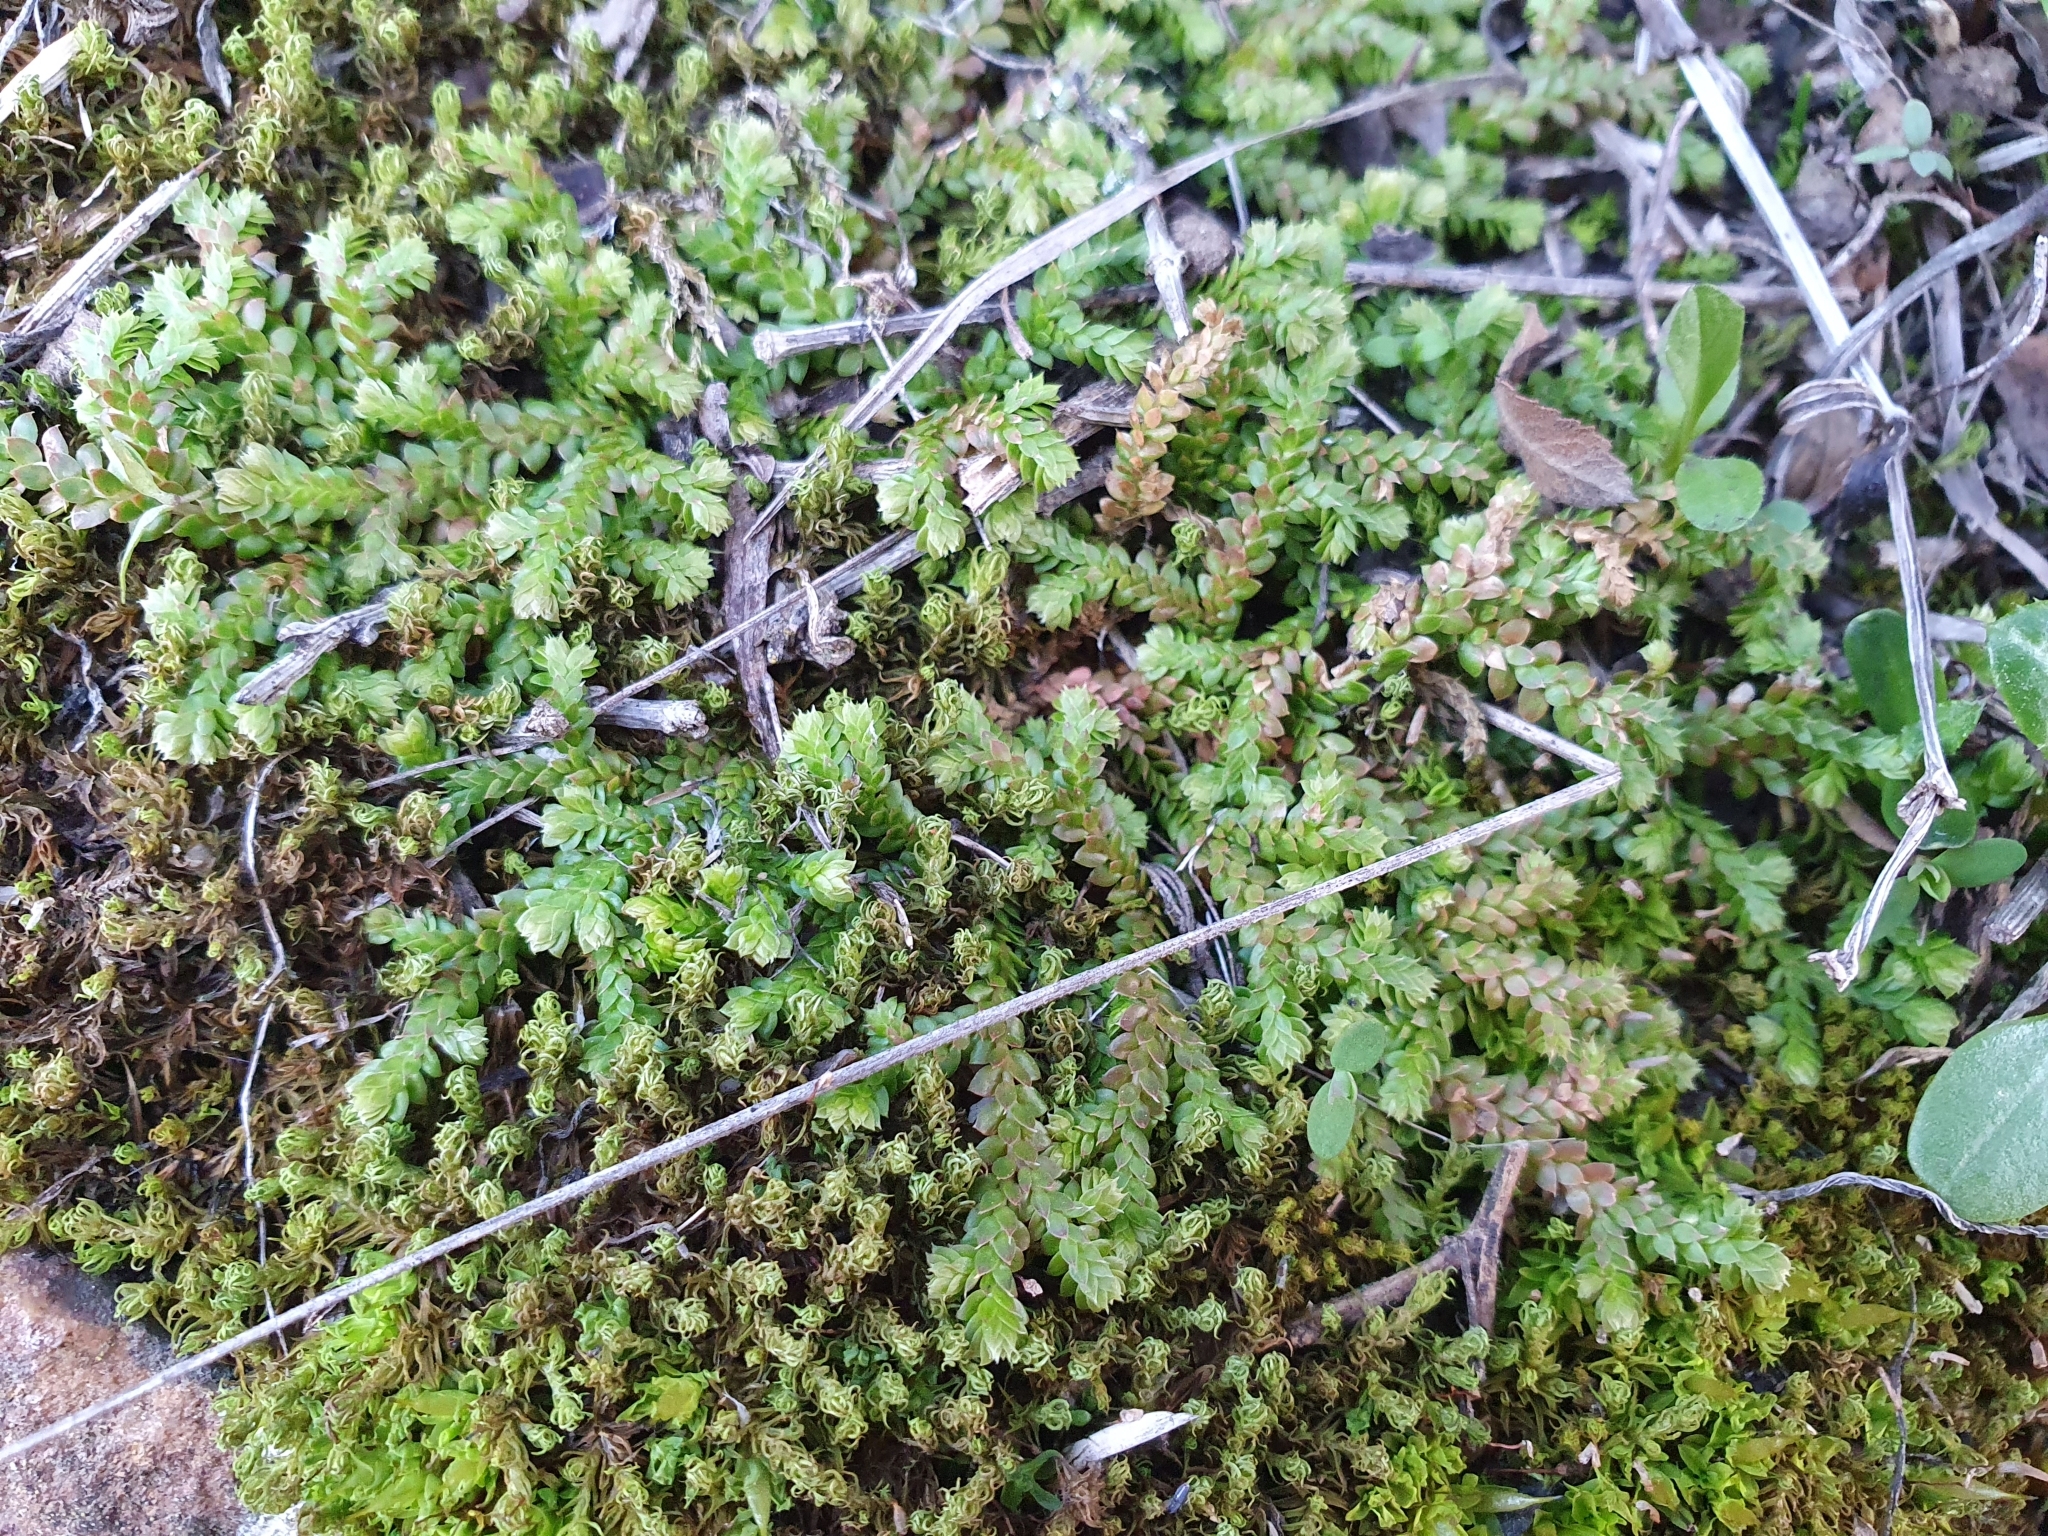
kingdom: Plantae
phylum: Tracheophyta
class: Lycopodiopsida
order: Selaginellales
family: Selaginellaceae
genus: Selaginella
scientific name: Selaginella denticulata
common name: Toothed-leaved clubmoss
